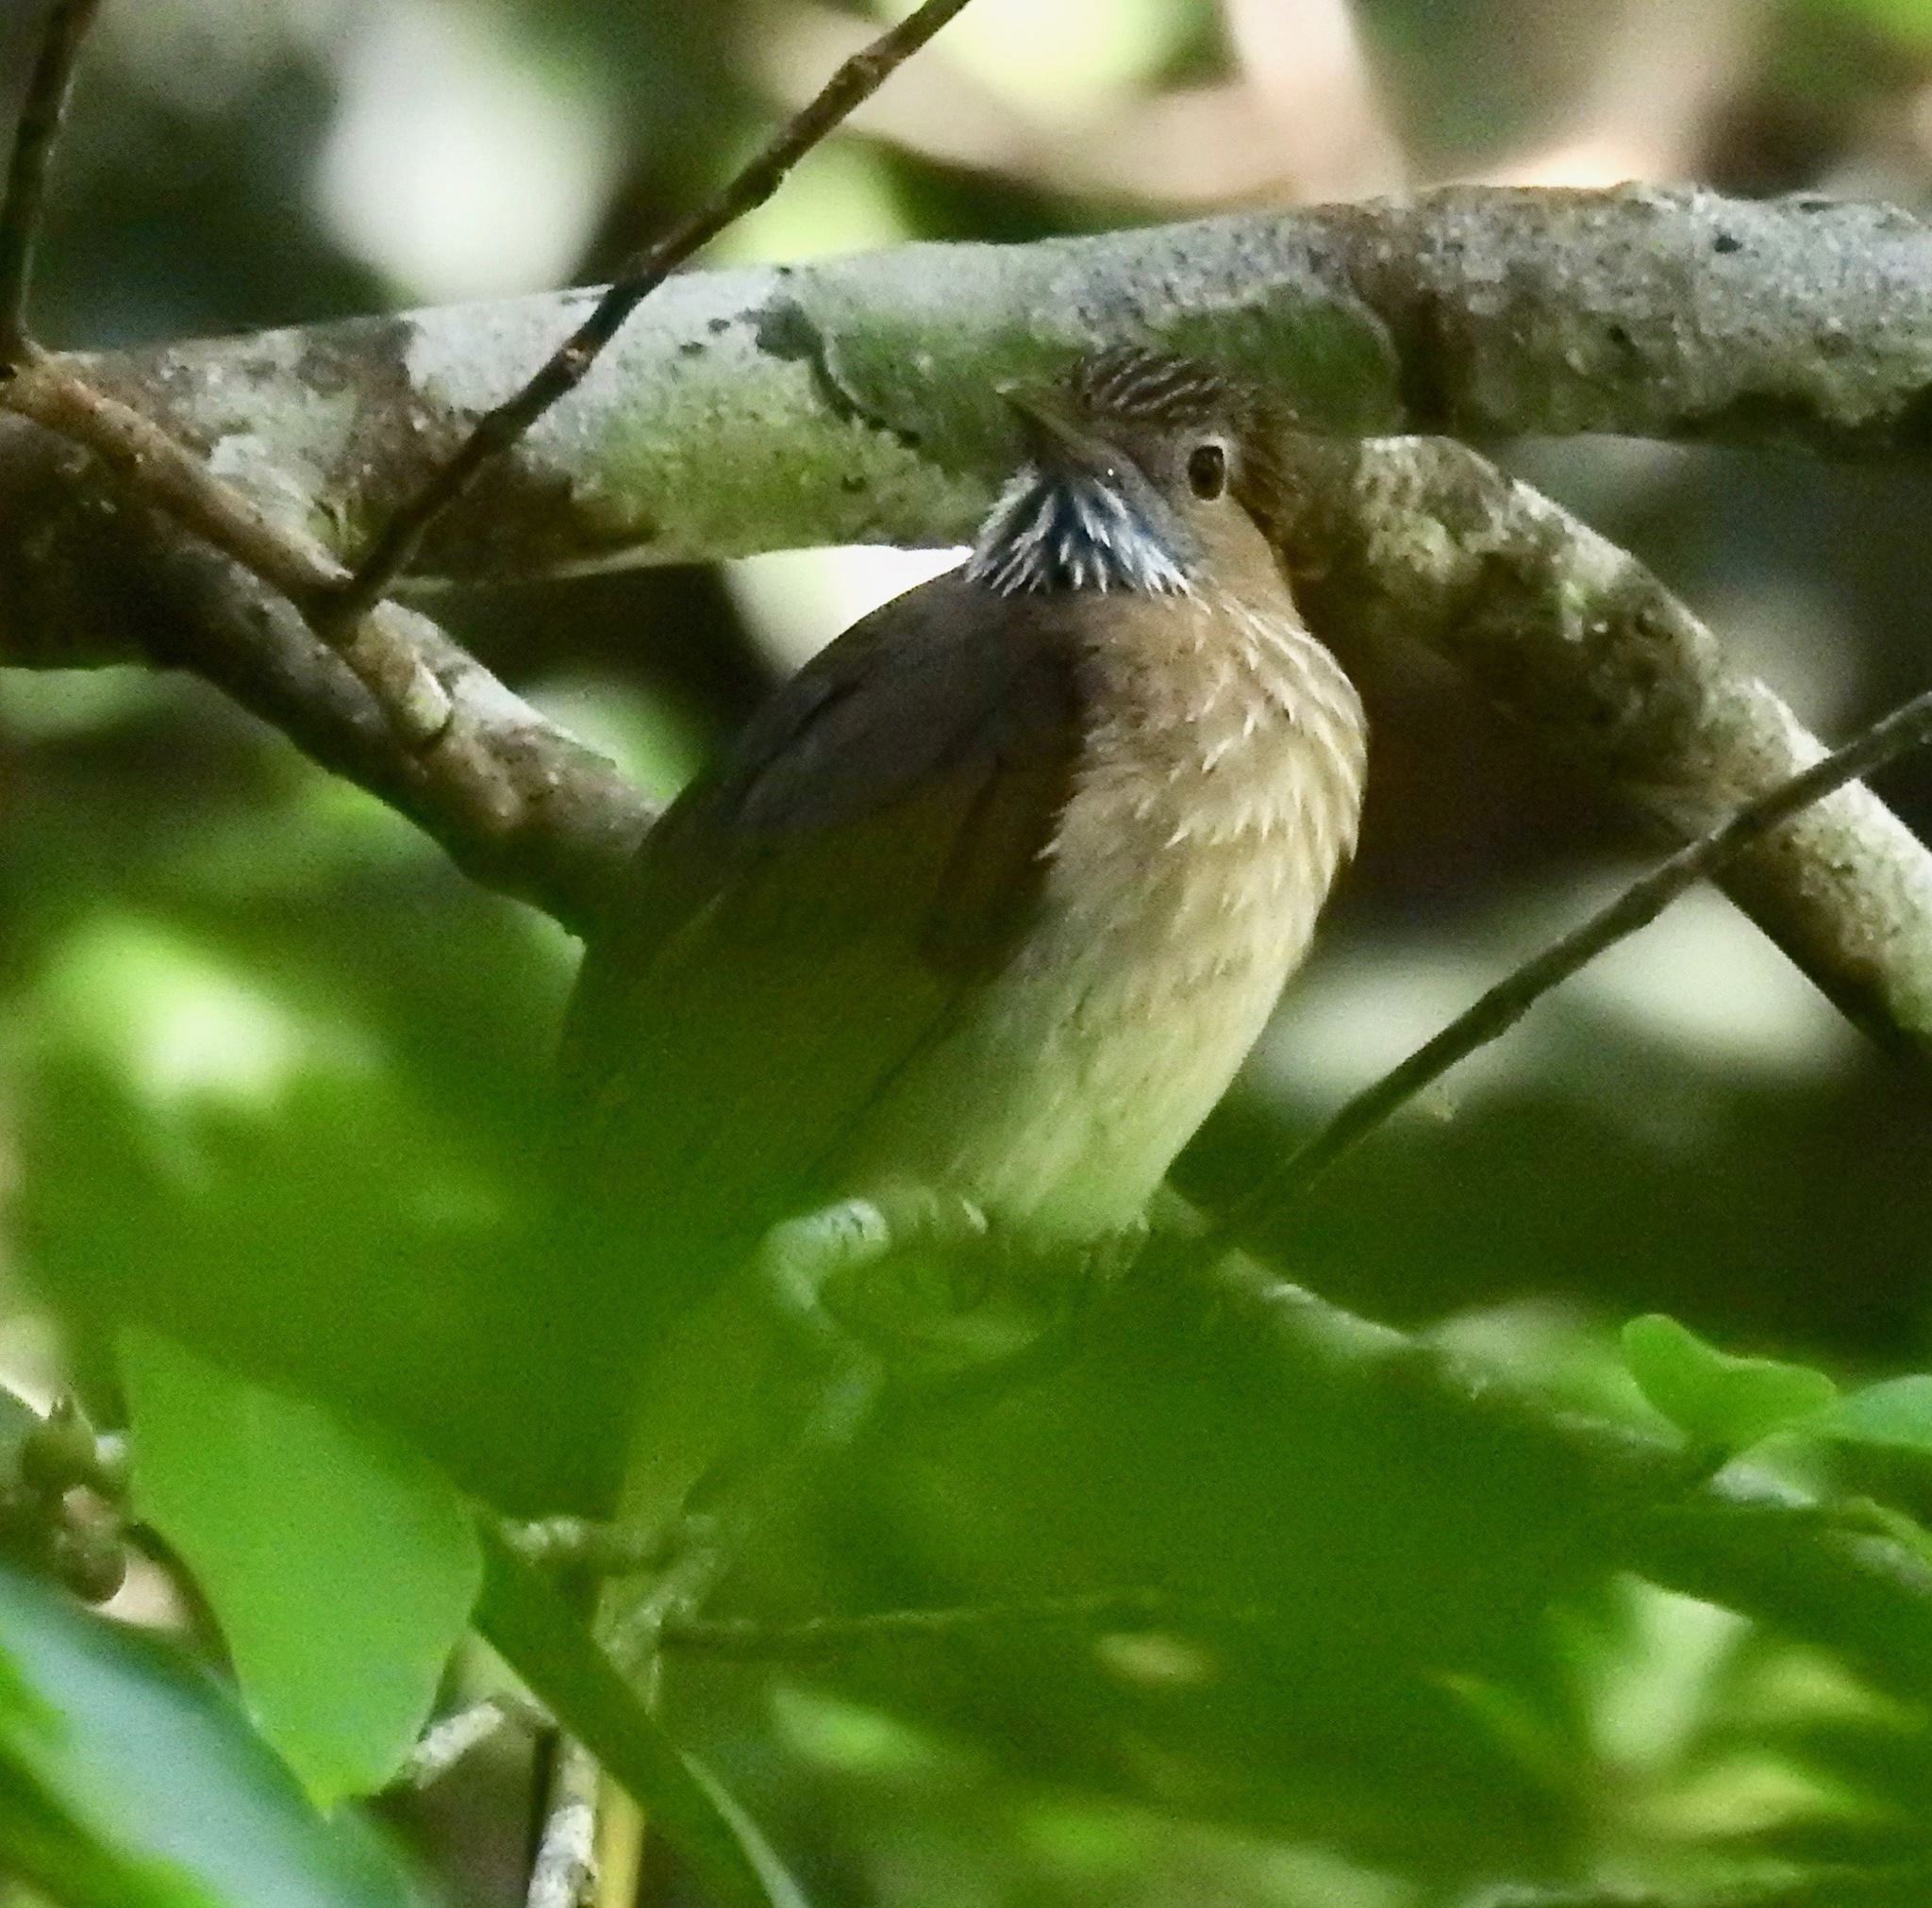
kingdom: Animalia
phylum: Chordata
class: Aves
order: Passeriformes
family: Pycnonotidae
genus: Ixos
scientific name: Ixos mcclellandii
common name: Mountain bulbul
